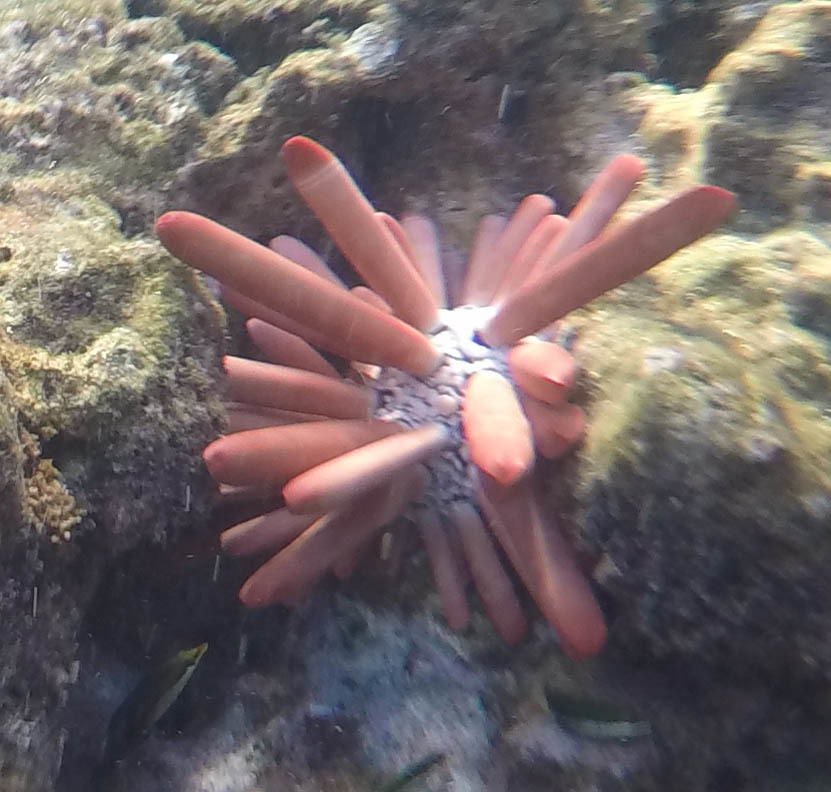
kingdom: Animalia
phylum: Echinodermata
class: Echinoidea
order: Camarodonta
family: Echinometridae
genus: Heterocentrotus
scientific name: Heterocentrotus mamillatus
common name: Slate pencil urchin
